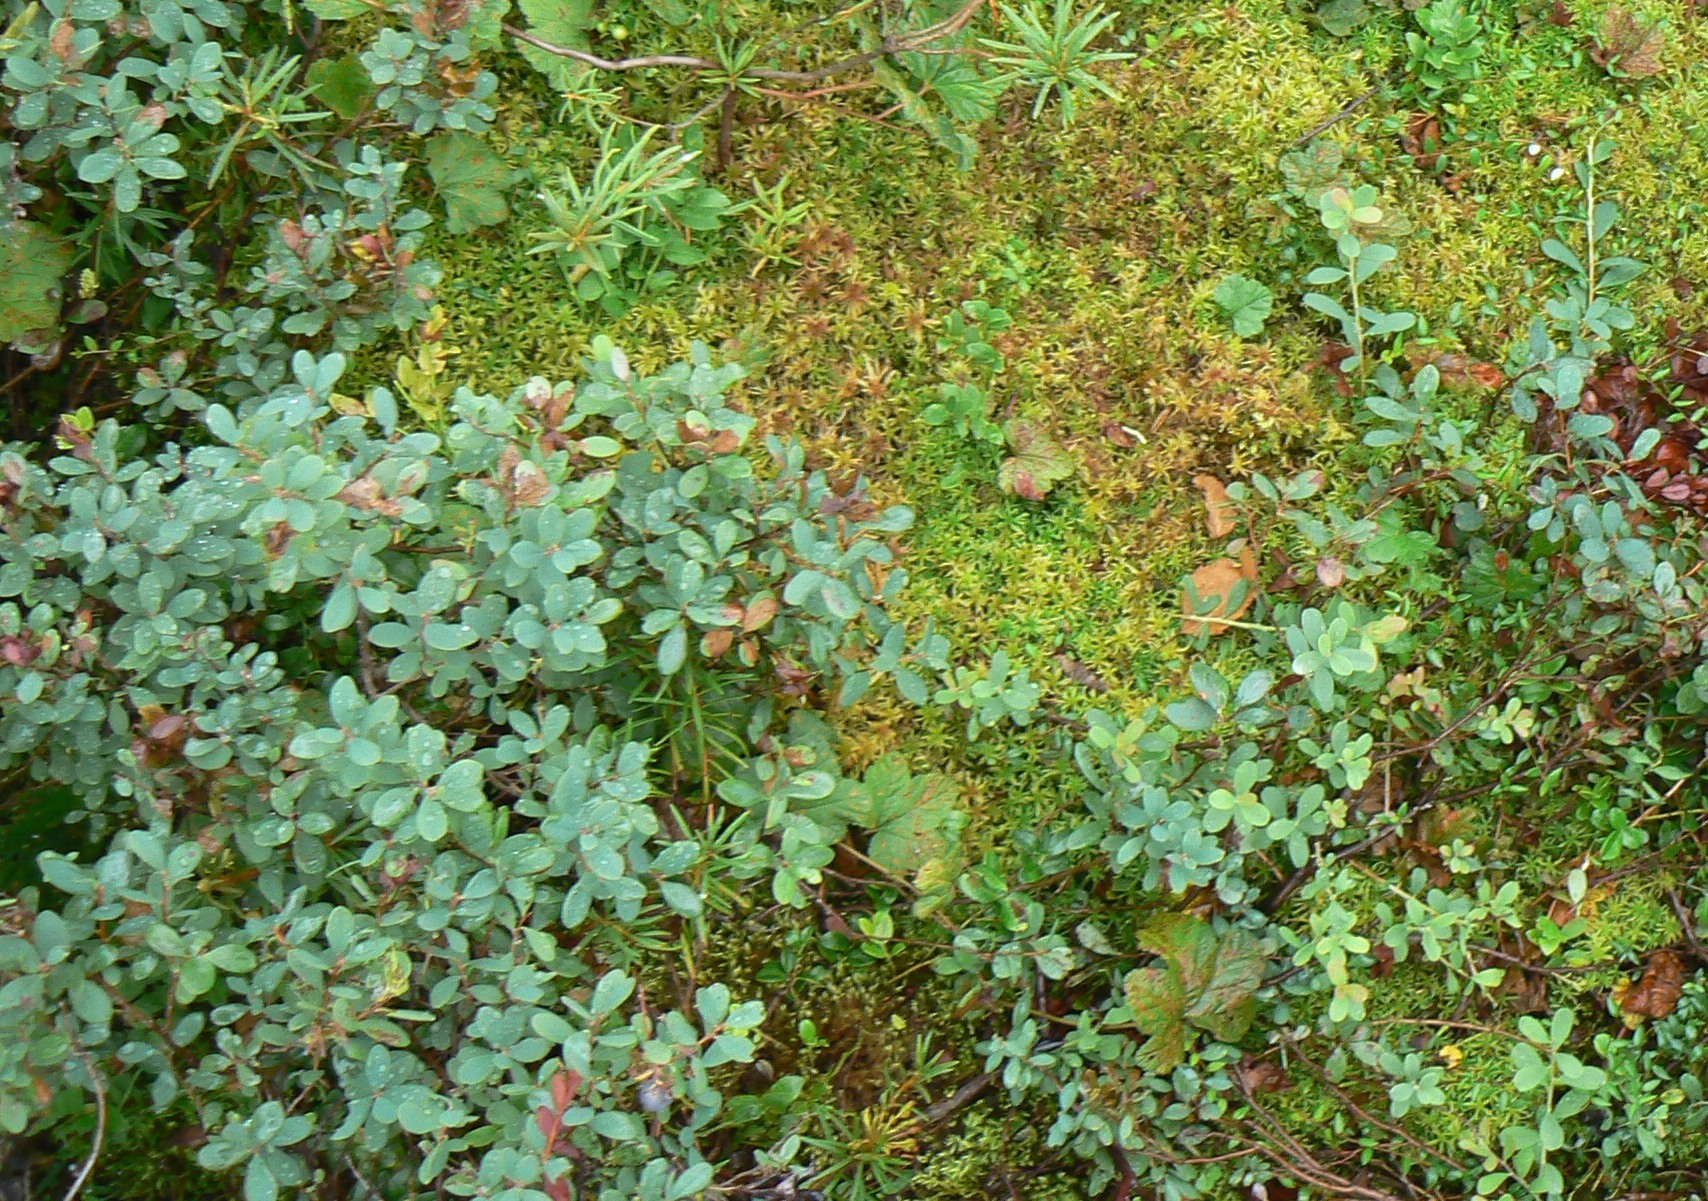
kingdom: Plantae
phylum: Tracheophyta
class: Magnoliopsida
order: Ericales
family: Ericaceae
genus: Vaccinium
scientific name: Vaccinium uliginosum
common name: Bog bilberry
